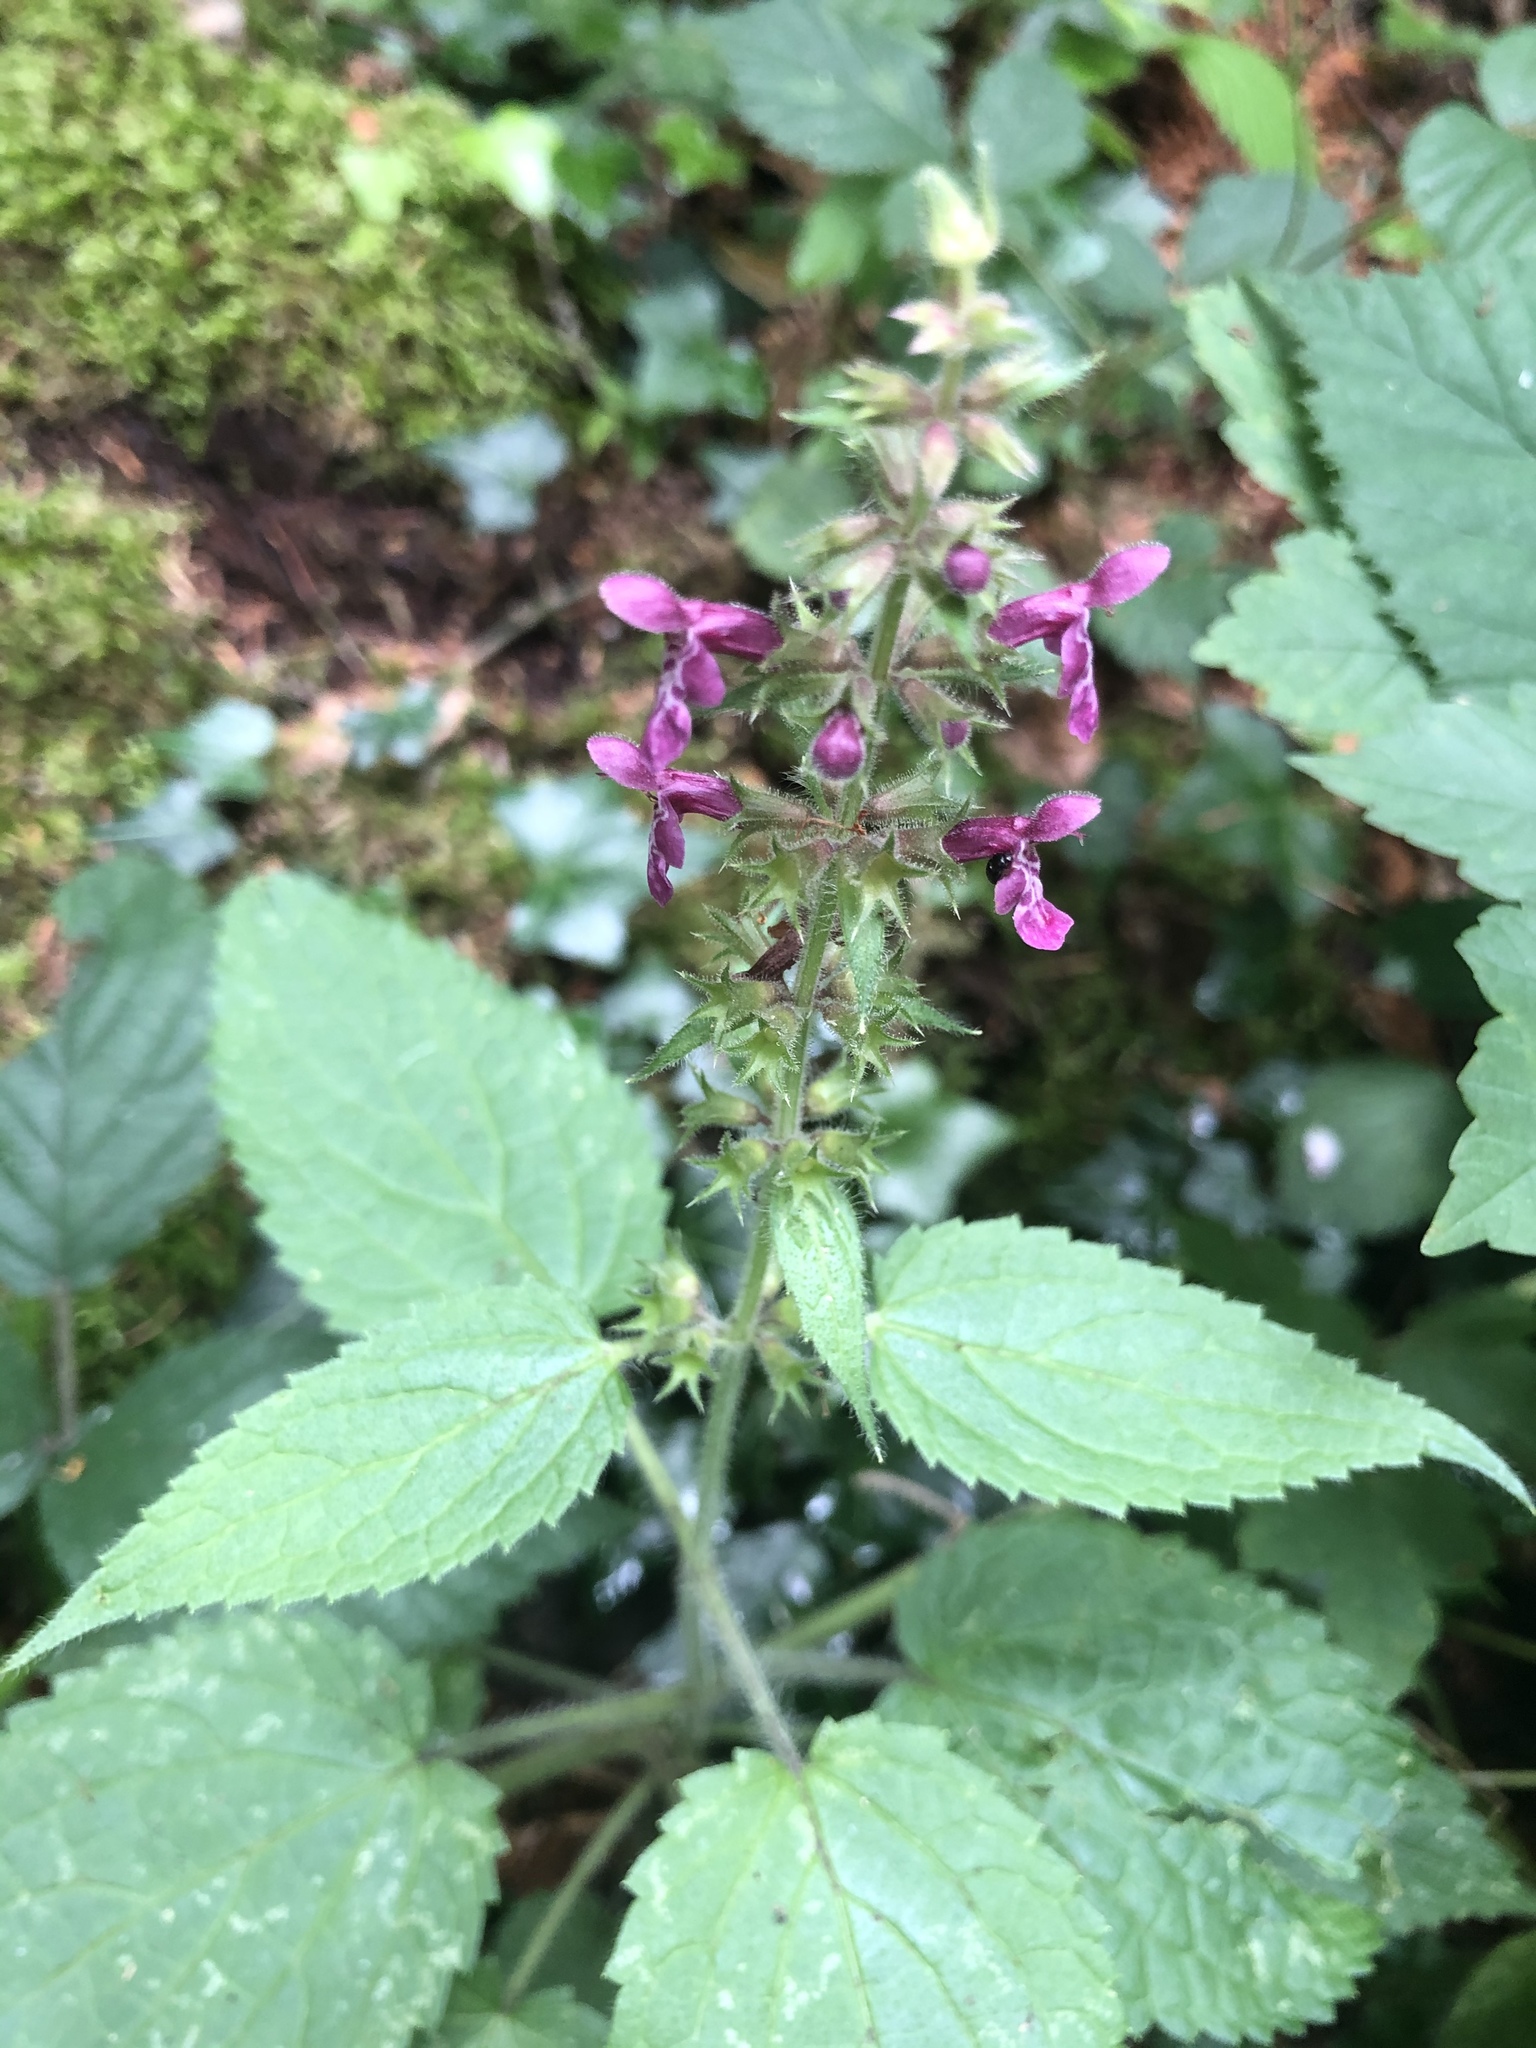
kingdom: Plantae
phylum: Tracheophyta
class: Magnoliopsida
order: Lamiales
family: Lamiaceae
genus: Stachys
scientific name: Stachys sylvatica
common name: Hedge woundwort
